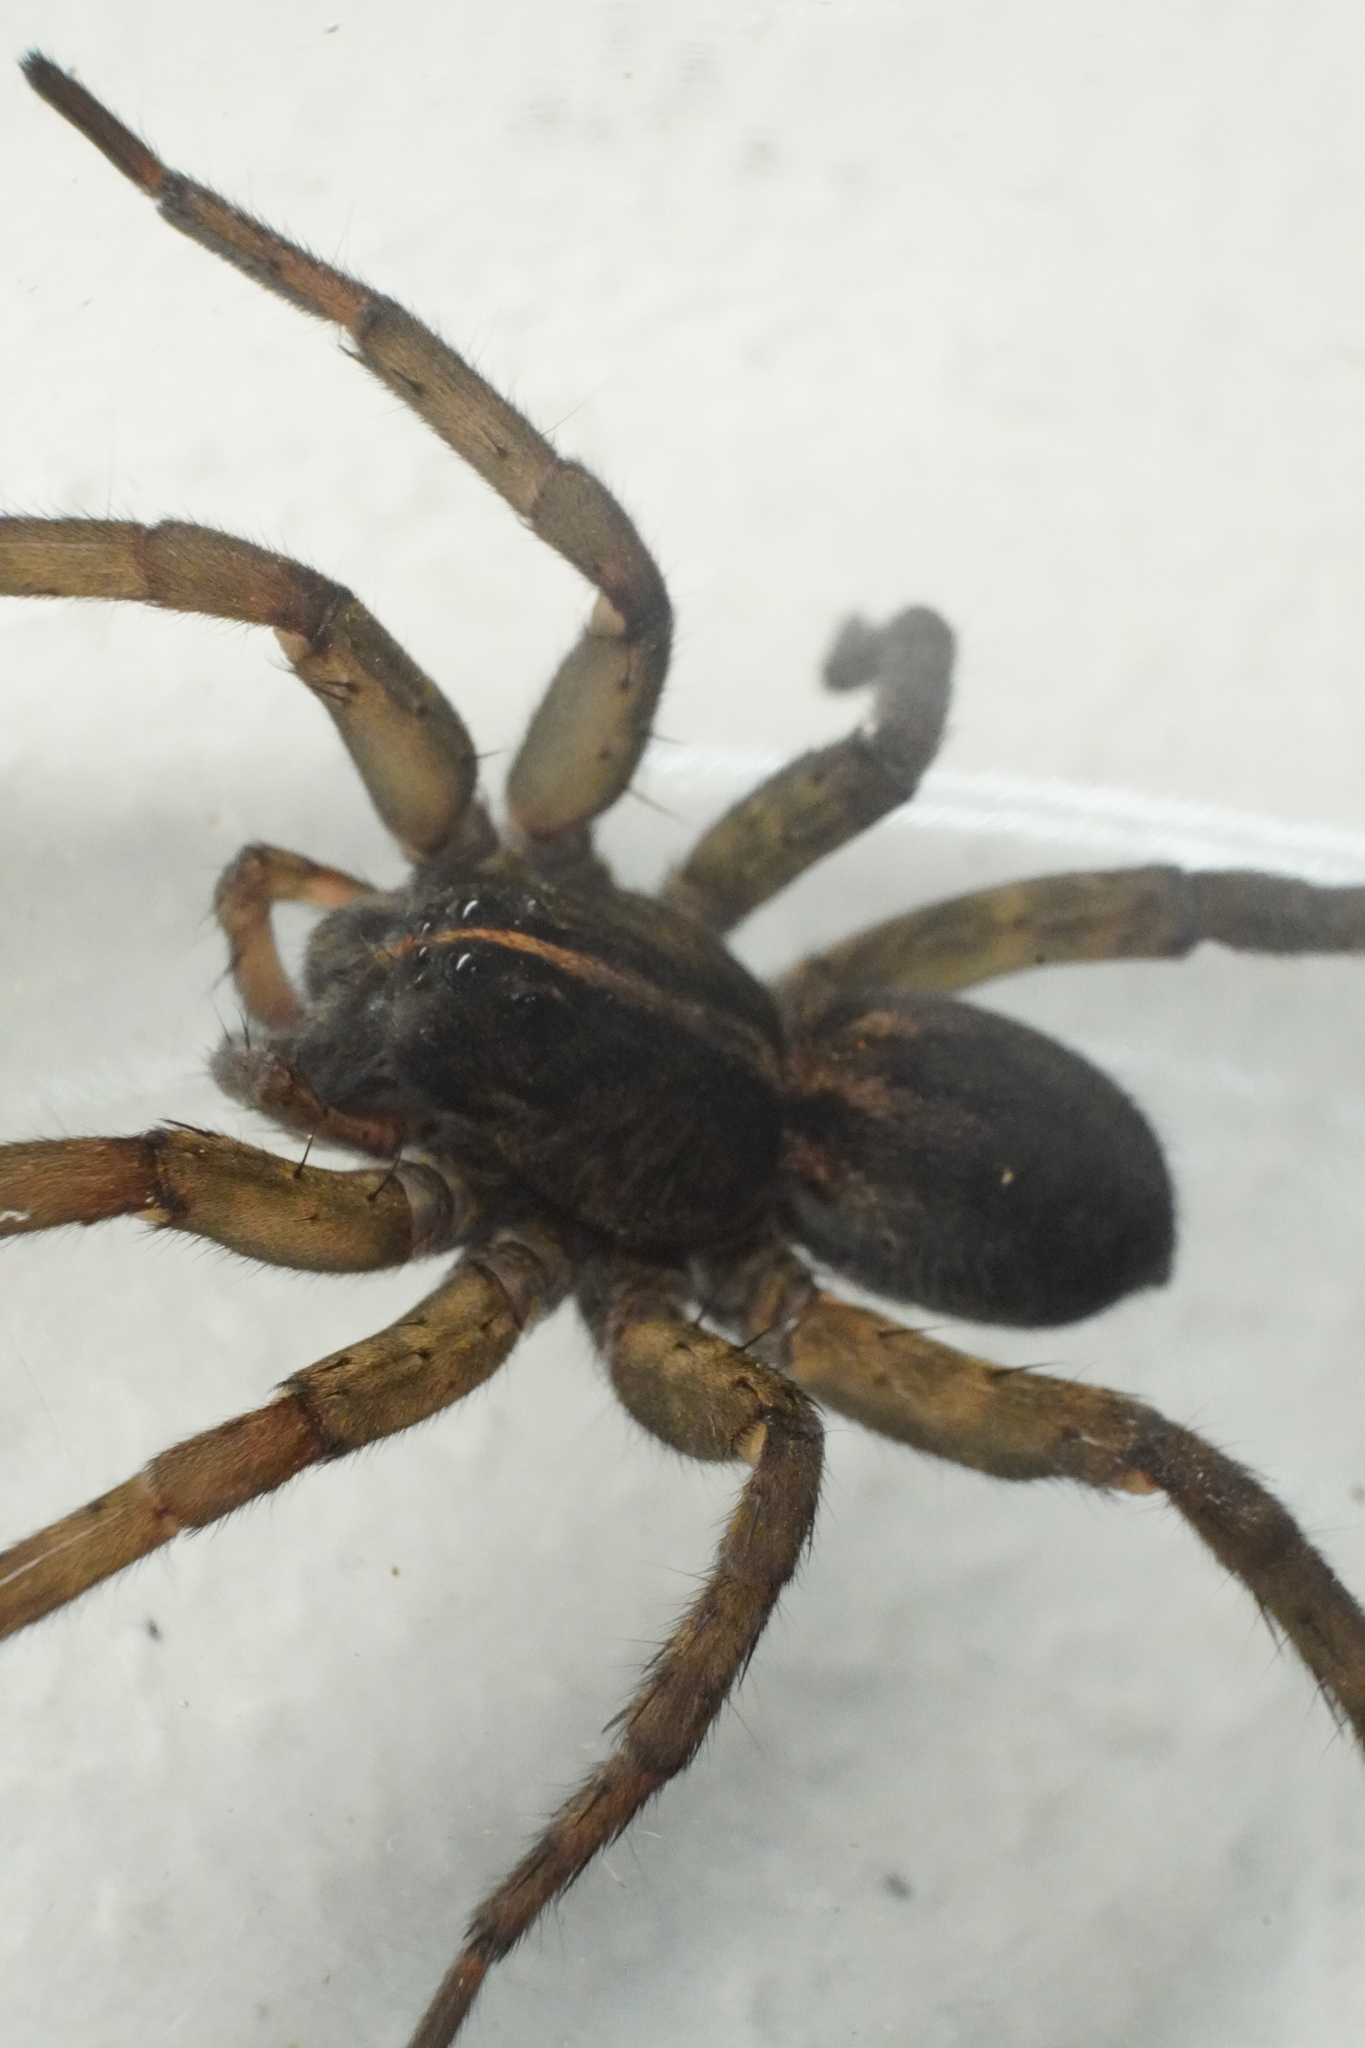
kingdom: Animalia
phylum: Arthropoda
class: Arachnida
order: Araneae
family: Lycosidae
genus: Tigrosa
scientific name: Tigrosa helluo
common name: Wetland giant wolf spider
